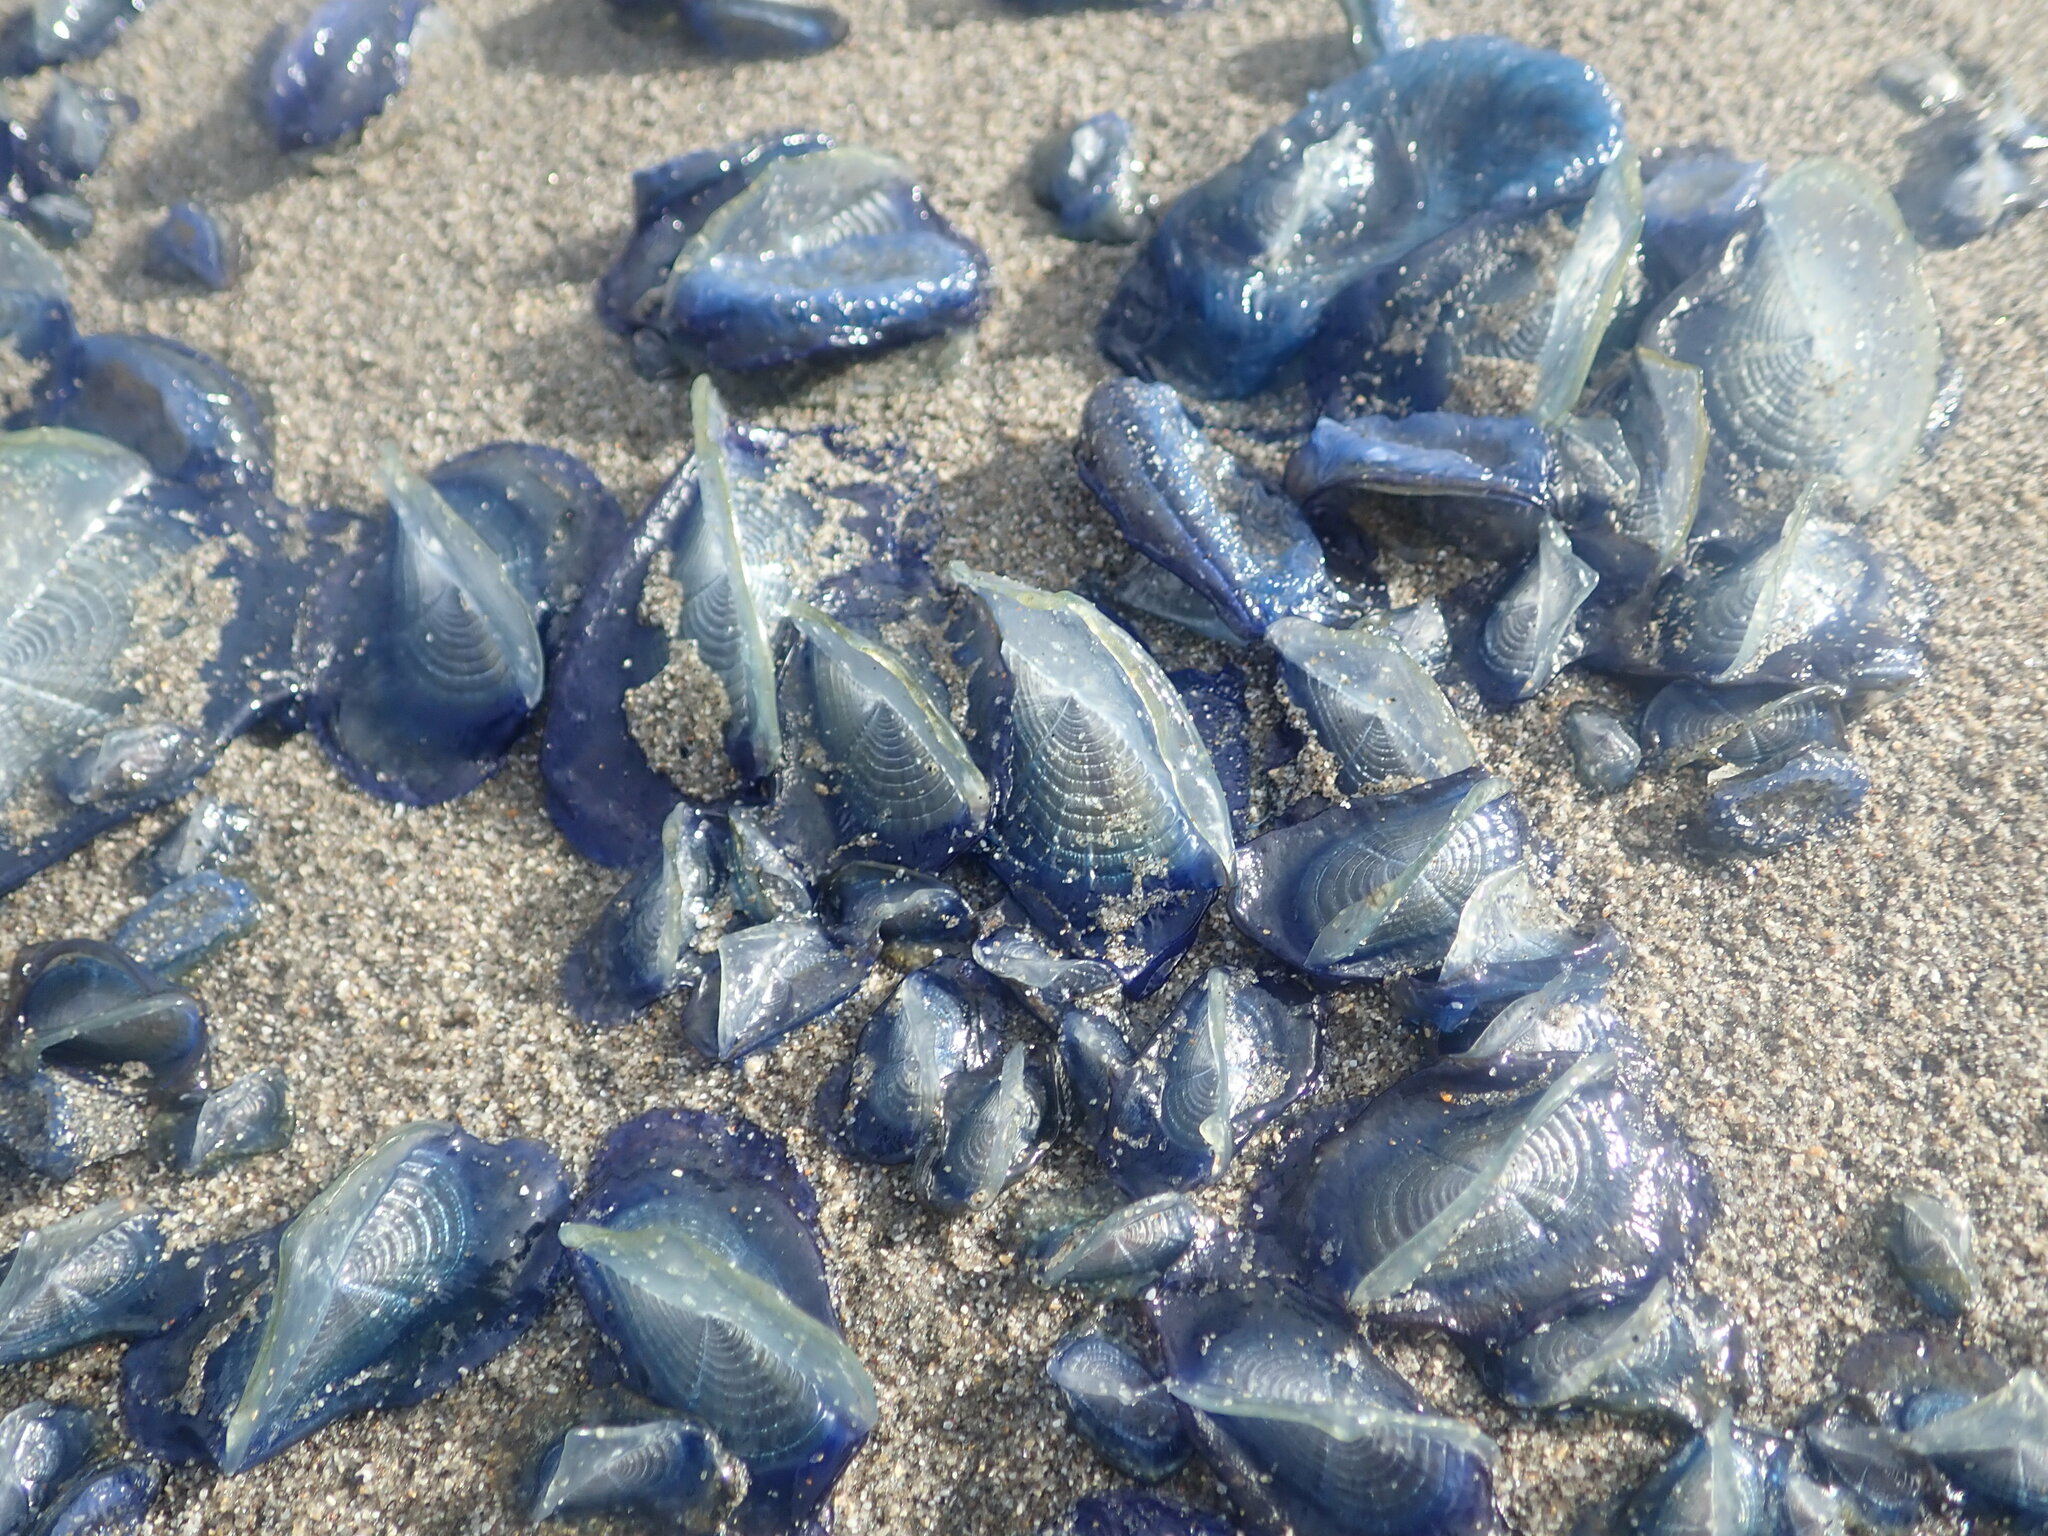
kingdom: Animalia
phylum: Cnidaria
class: Hydrozoa
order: Anthoathecata
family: Porpitidae
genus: Velella
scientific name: Velella velella
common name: By-the-wind-sailor
